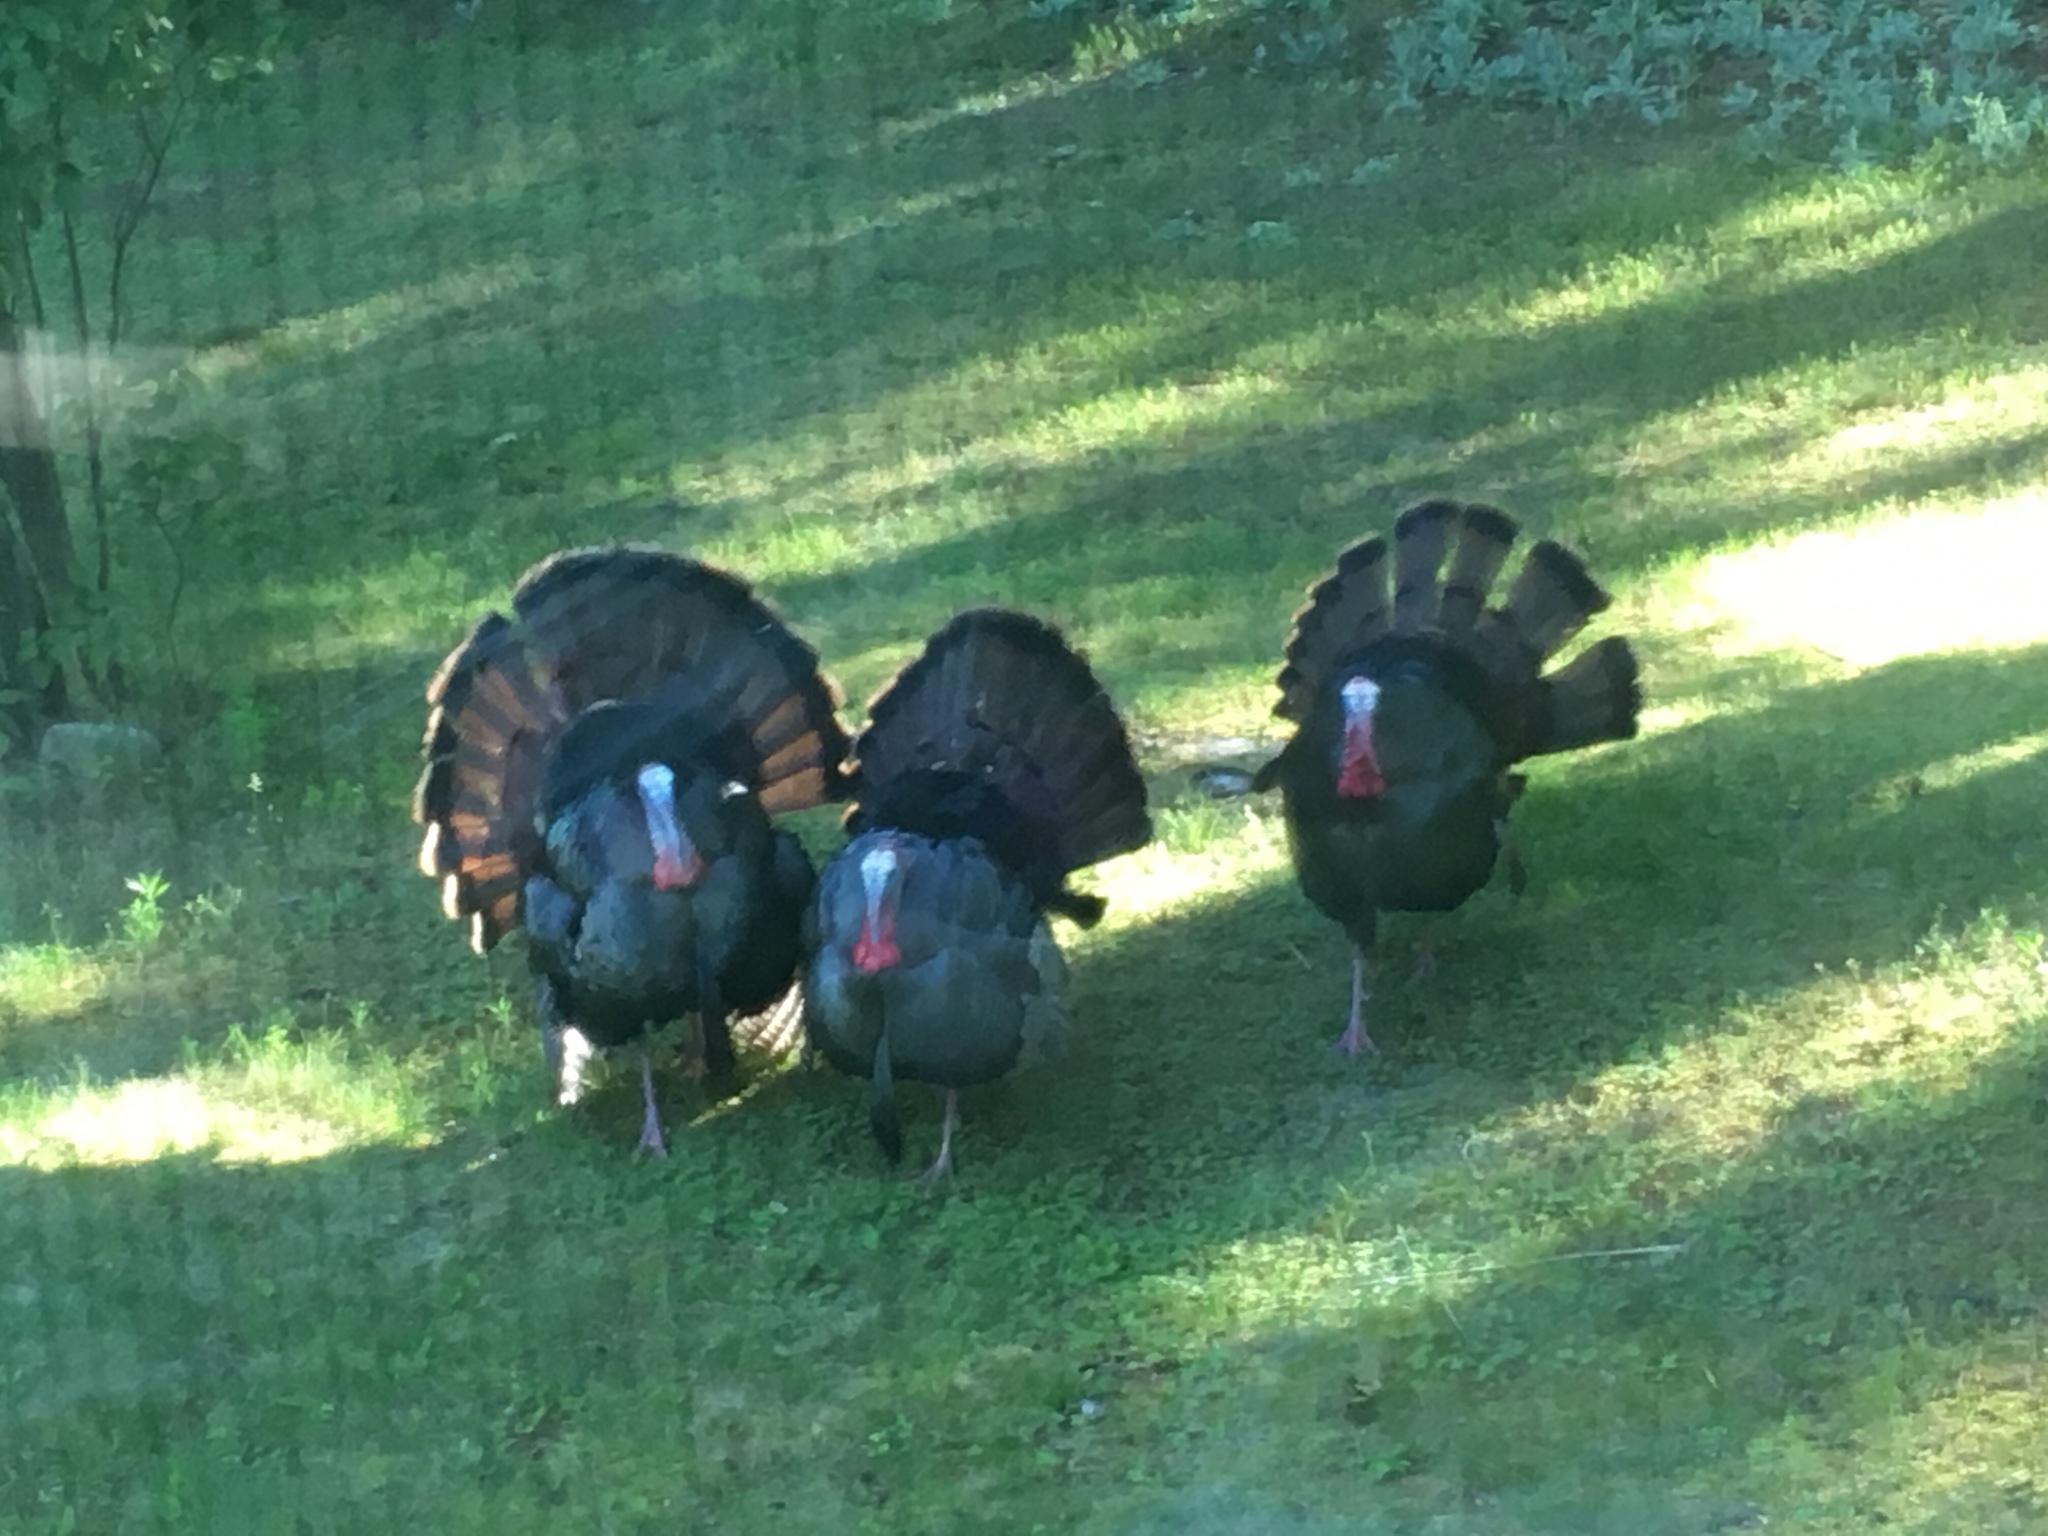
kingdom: Animalia
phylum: Chordata
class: Aves
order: Galliformes
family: Phasianidae
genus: Meleagris
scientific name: Meleagris gallopavo
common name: Wild turkey
